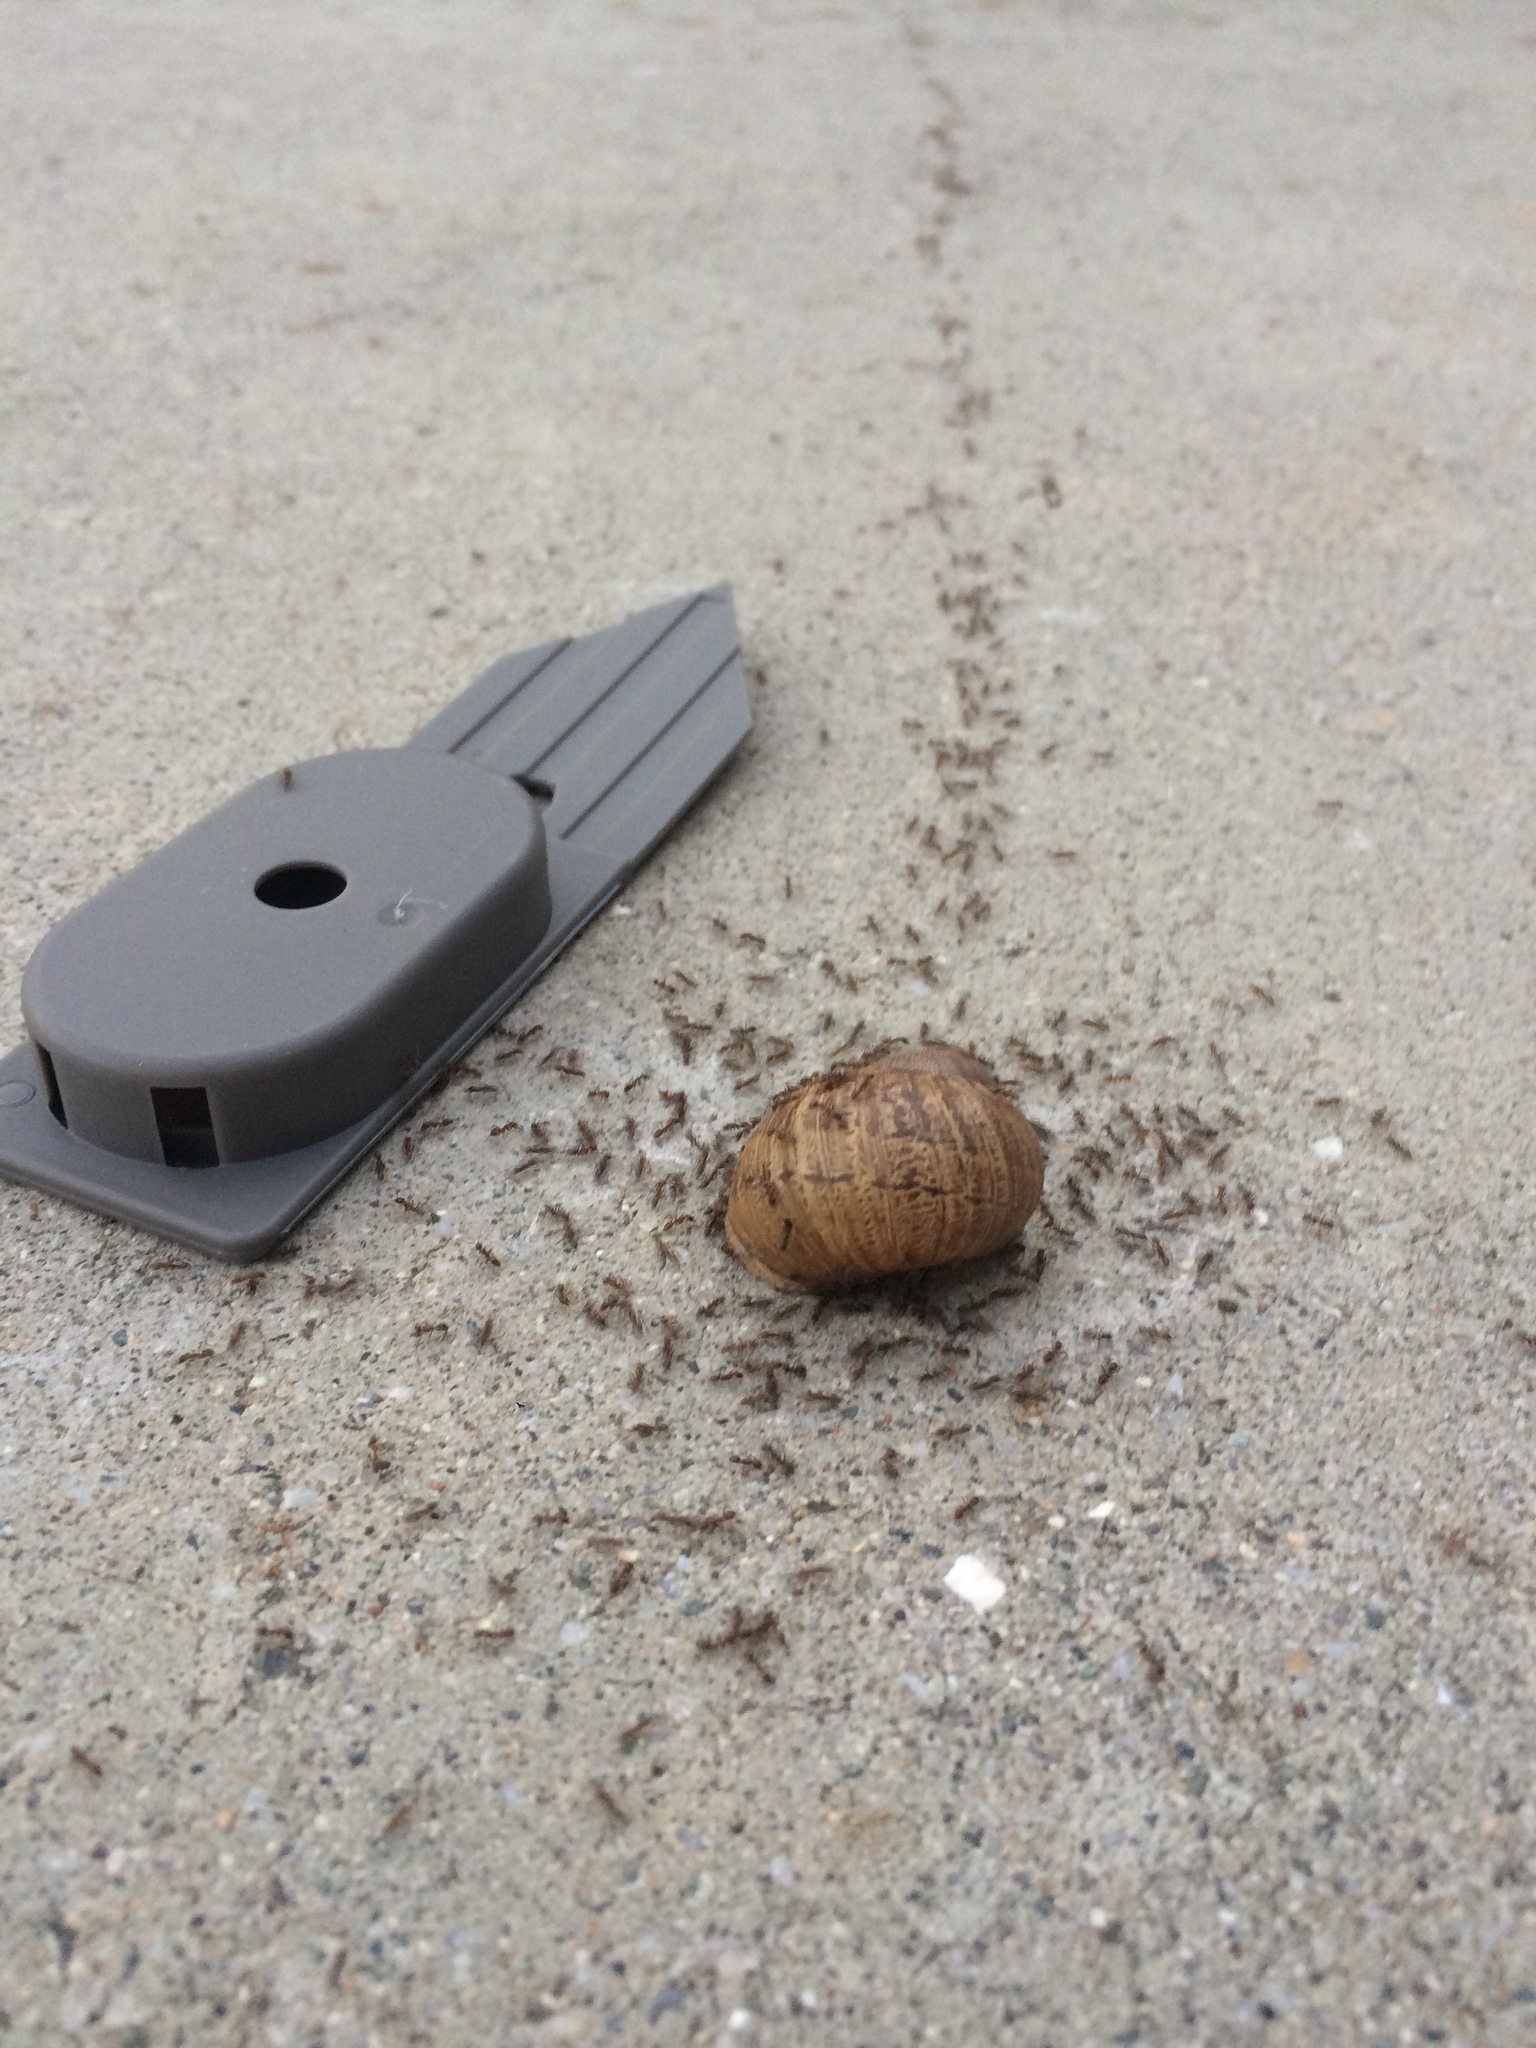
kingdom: Animalia
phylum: Arthropoda
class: Insecta
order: Hymenoptera
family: Formicidae
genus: Linepithema
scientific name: Linepithema humile
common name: Argentine ant
